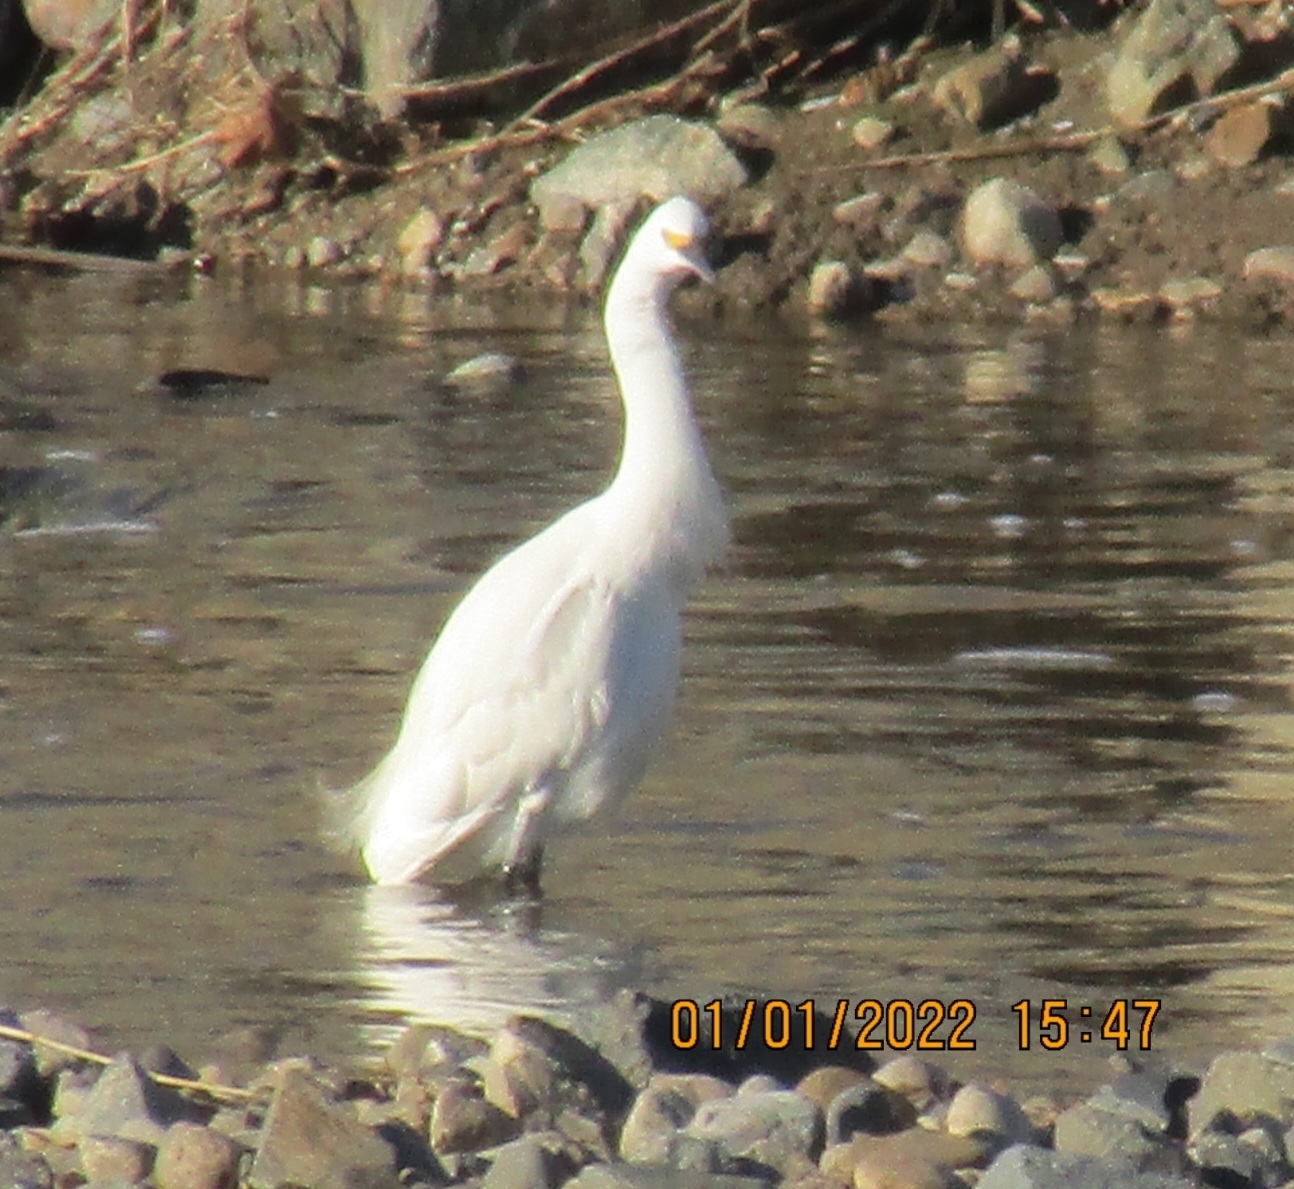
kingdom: Animalia
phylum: Chordata
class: Aves
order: Pelecaniformes
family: Ardeidae
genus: Egretta
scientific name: Egretta thula
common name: Snowy egret
